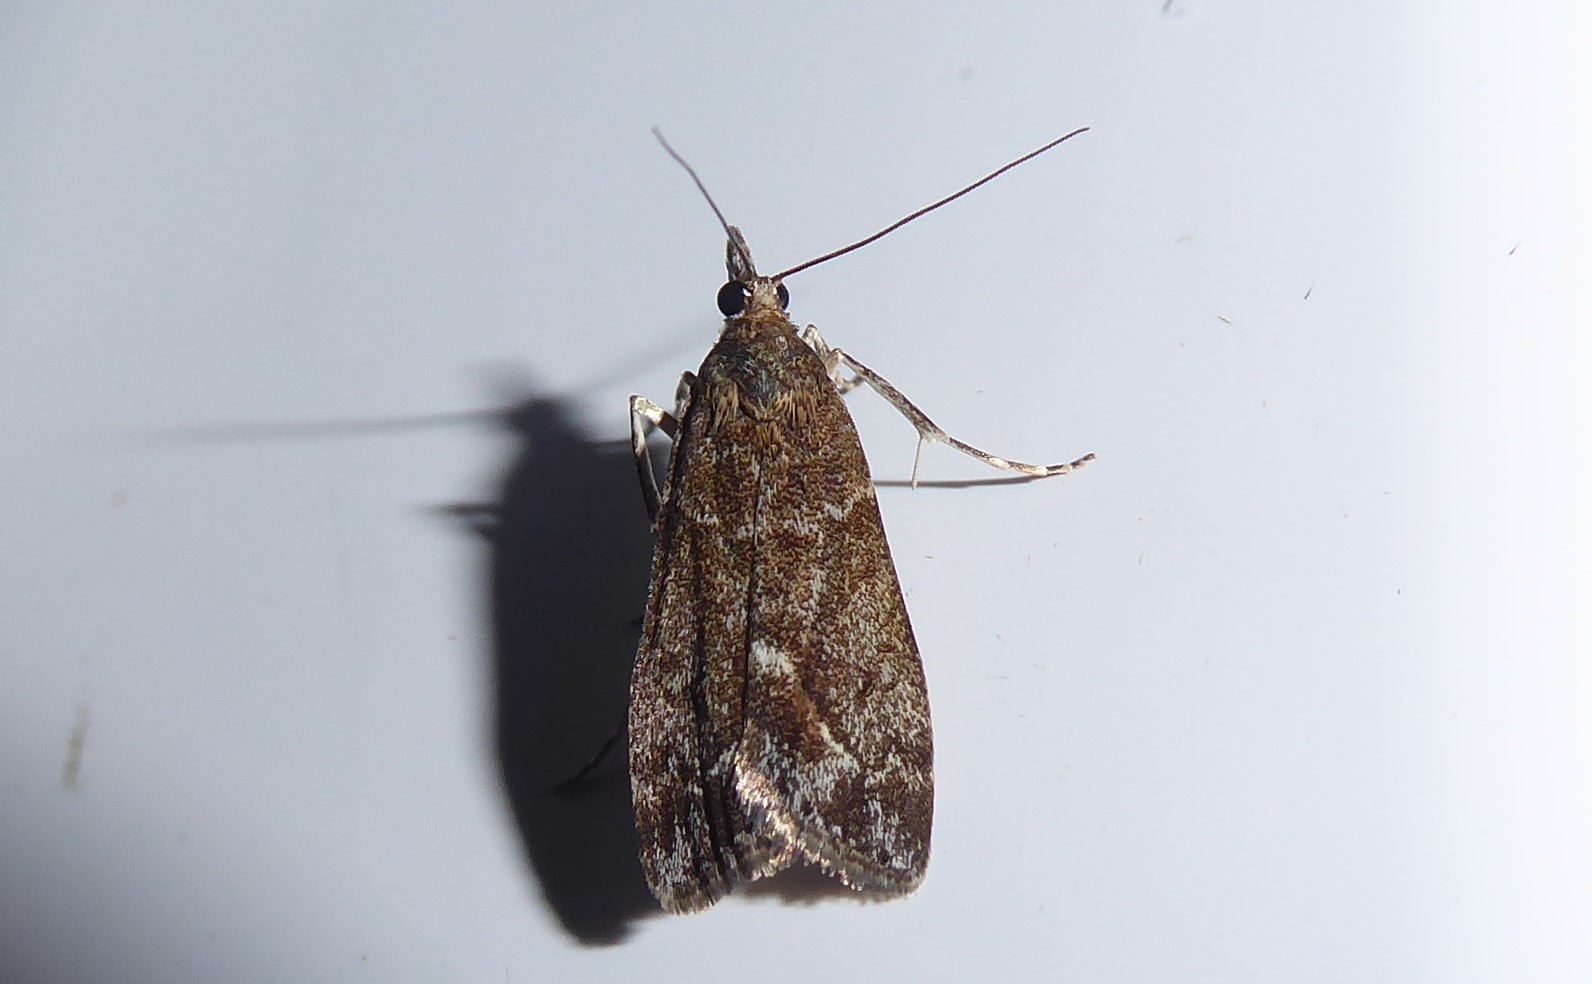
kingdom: Animalia
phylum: Arthropoda
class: Insecta
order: Lepidoptera
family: Crambidae
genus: Eudonia
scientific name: Eudonia submarginalis
